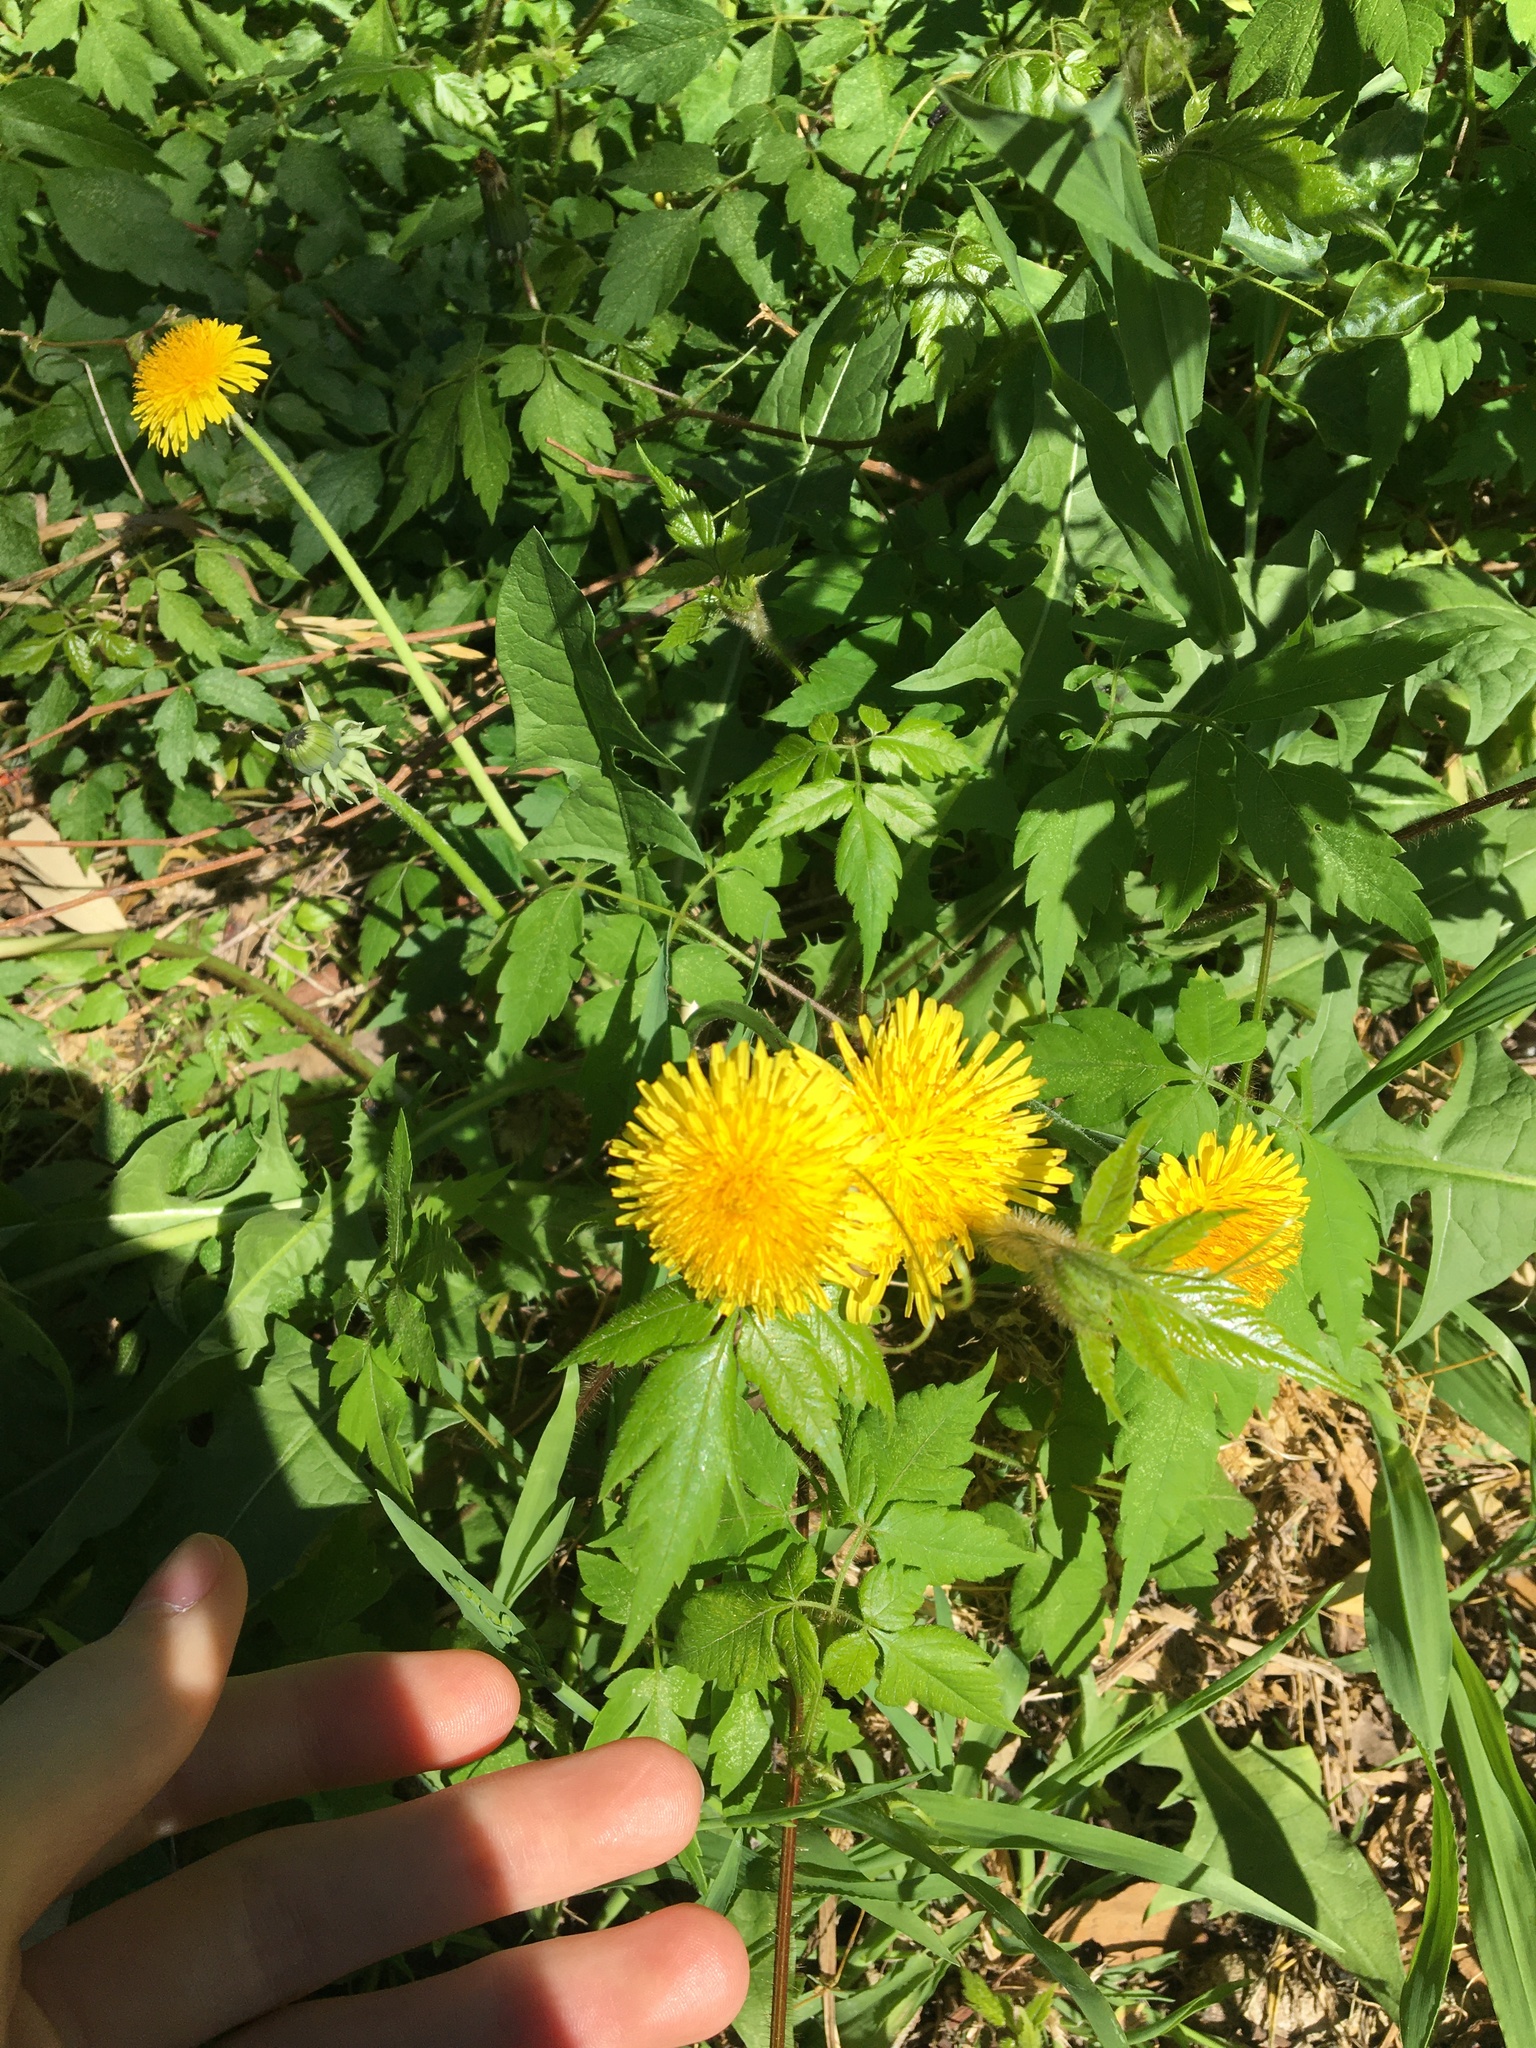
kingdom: Plantae
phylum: Tracheophyta
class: Magnoliopsida
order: Asterales
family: Asteraceae
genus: Taraxacum
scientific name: Taraxacum officinale
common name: Common dandelion
